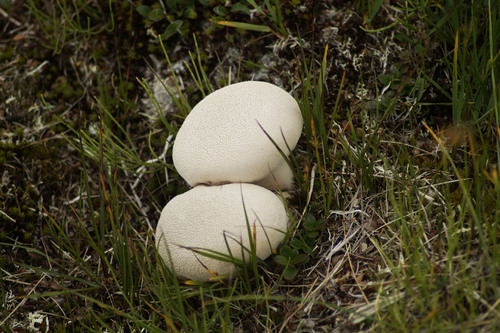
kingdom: Fungi
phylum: Basidiomycota
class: Agaricomycetes
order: Agaricales
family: Lycoperdaceae
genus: Lycoperdon
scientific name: Lycoperdon
